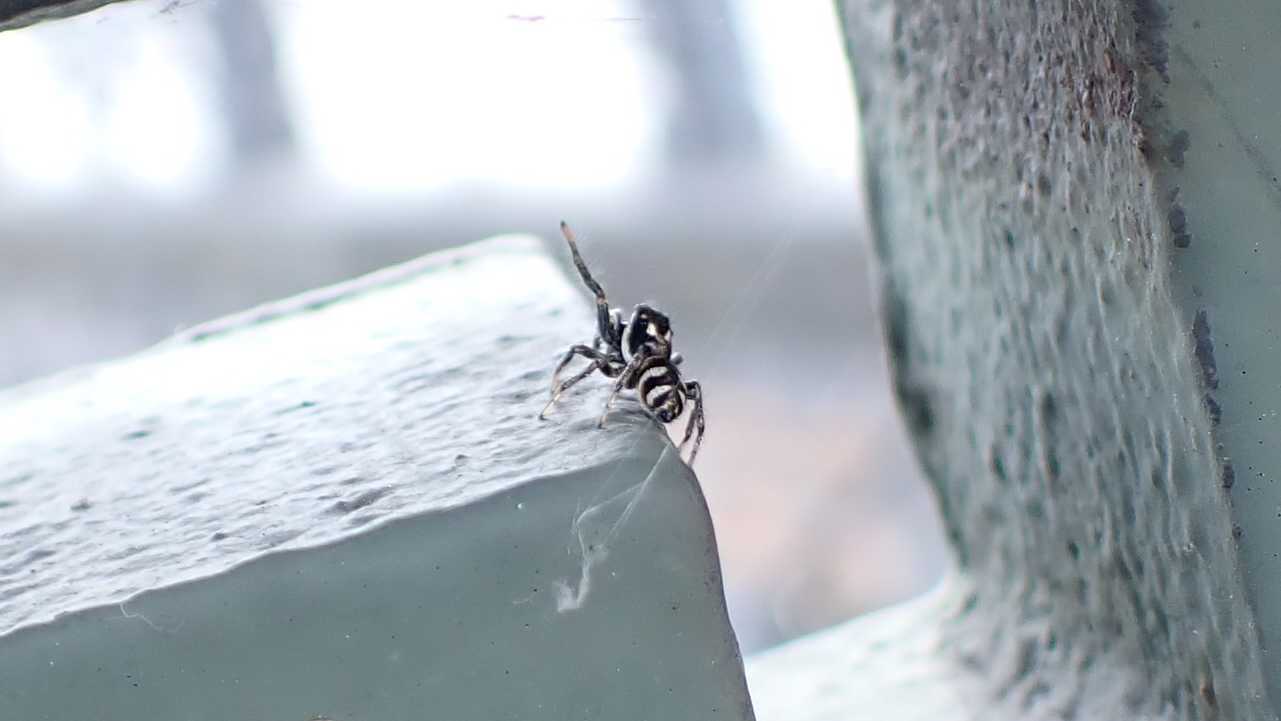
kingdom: Animalia
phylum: Arthropoda
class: Arachnida
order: Araneae
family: Salticidae
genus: Salticus
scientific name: Salticus scenicus
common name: Zebra jumper
